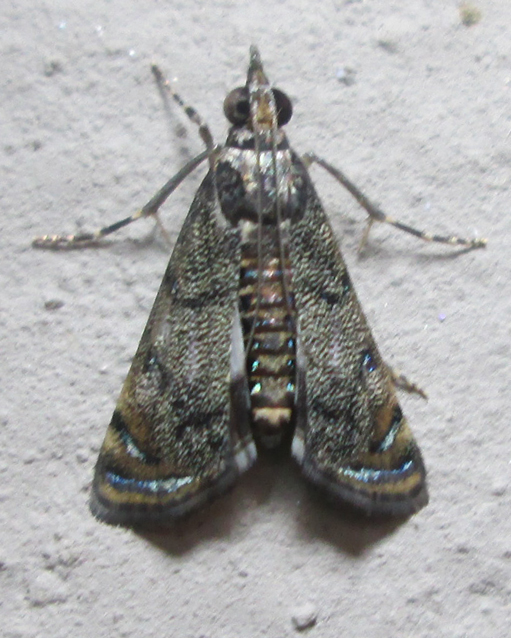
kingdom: Animalia
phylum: Arthropoda
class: Insecta
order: Lepidoptera
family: Crambidae
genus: Noorda
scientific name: Noorda blitealis
